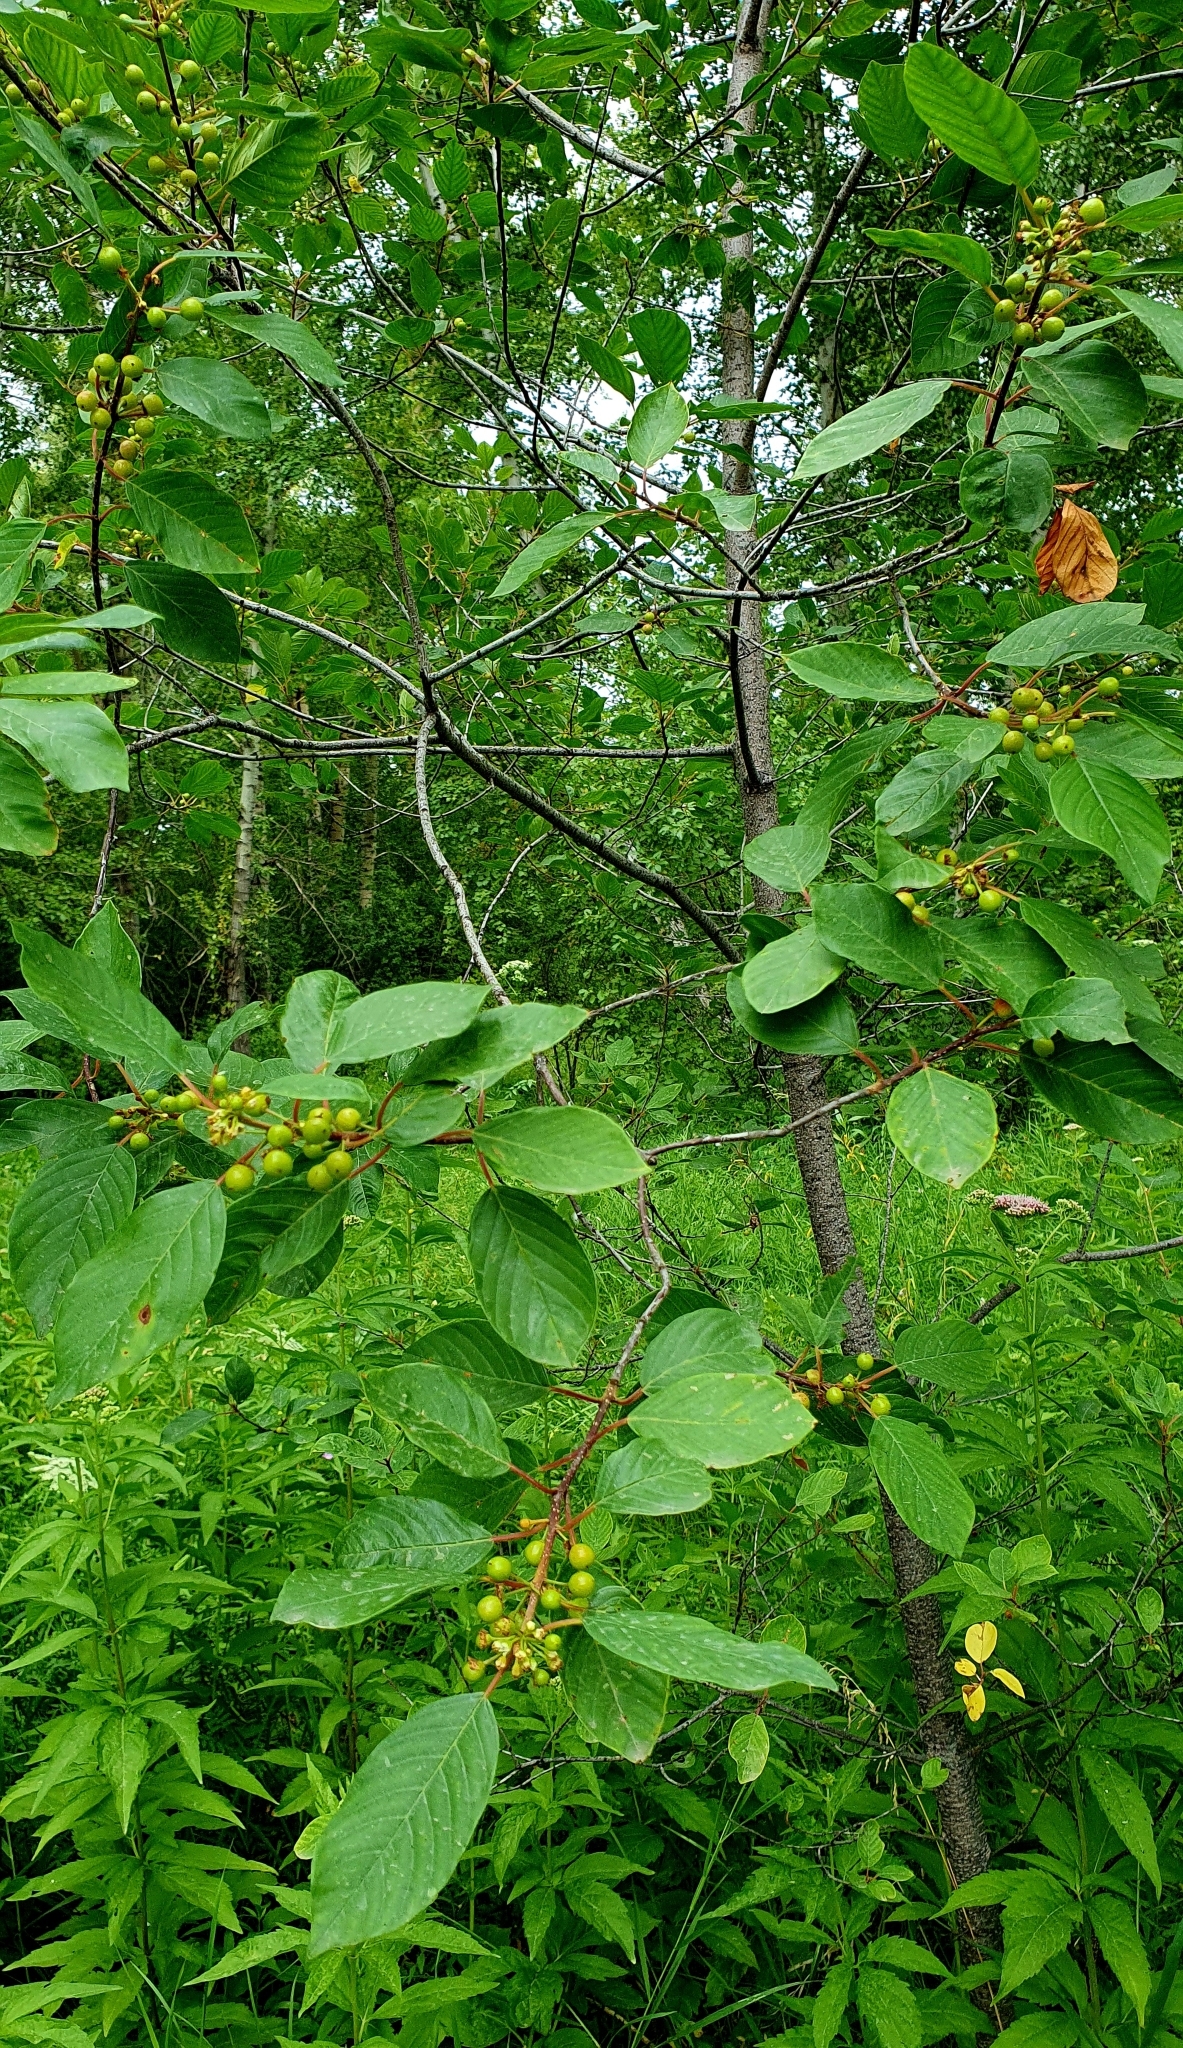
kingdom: Plantae
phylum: Tracheophyta
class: Magnoliopsida
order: Rosales
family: Rhamnaceae
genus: Frangula
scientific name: Frangula alnus
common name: Alder buckthorn
